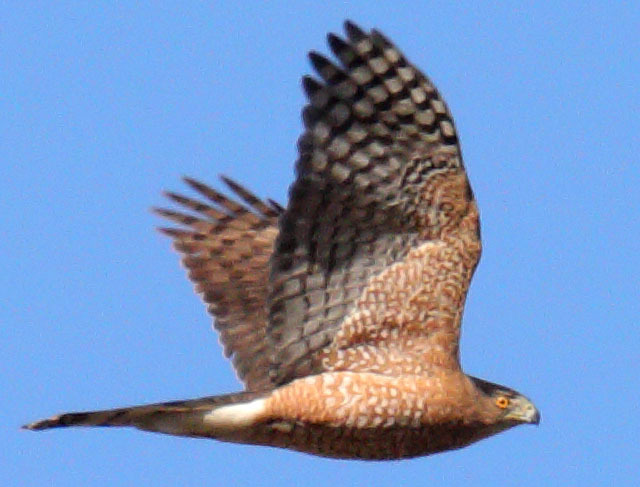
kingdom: Animalia
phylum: Chordata
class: Aves
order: Accipitriformes
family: Accipitridae
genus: Accipiter
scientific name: Accipiter cooperii
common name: Cooper's hawk
